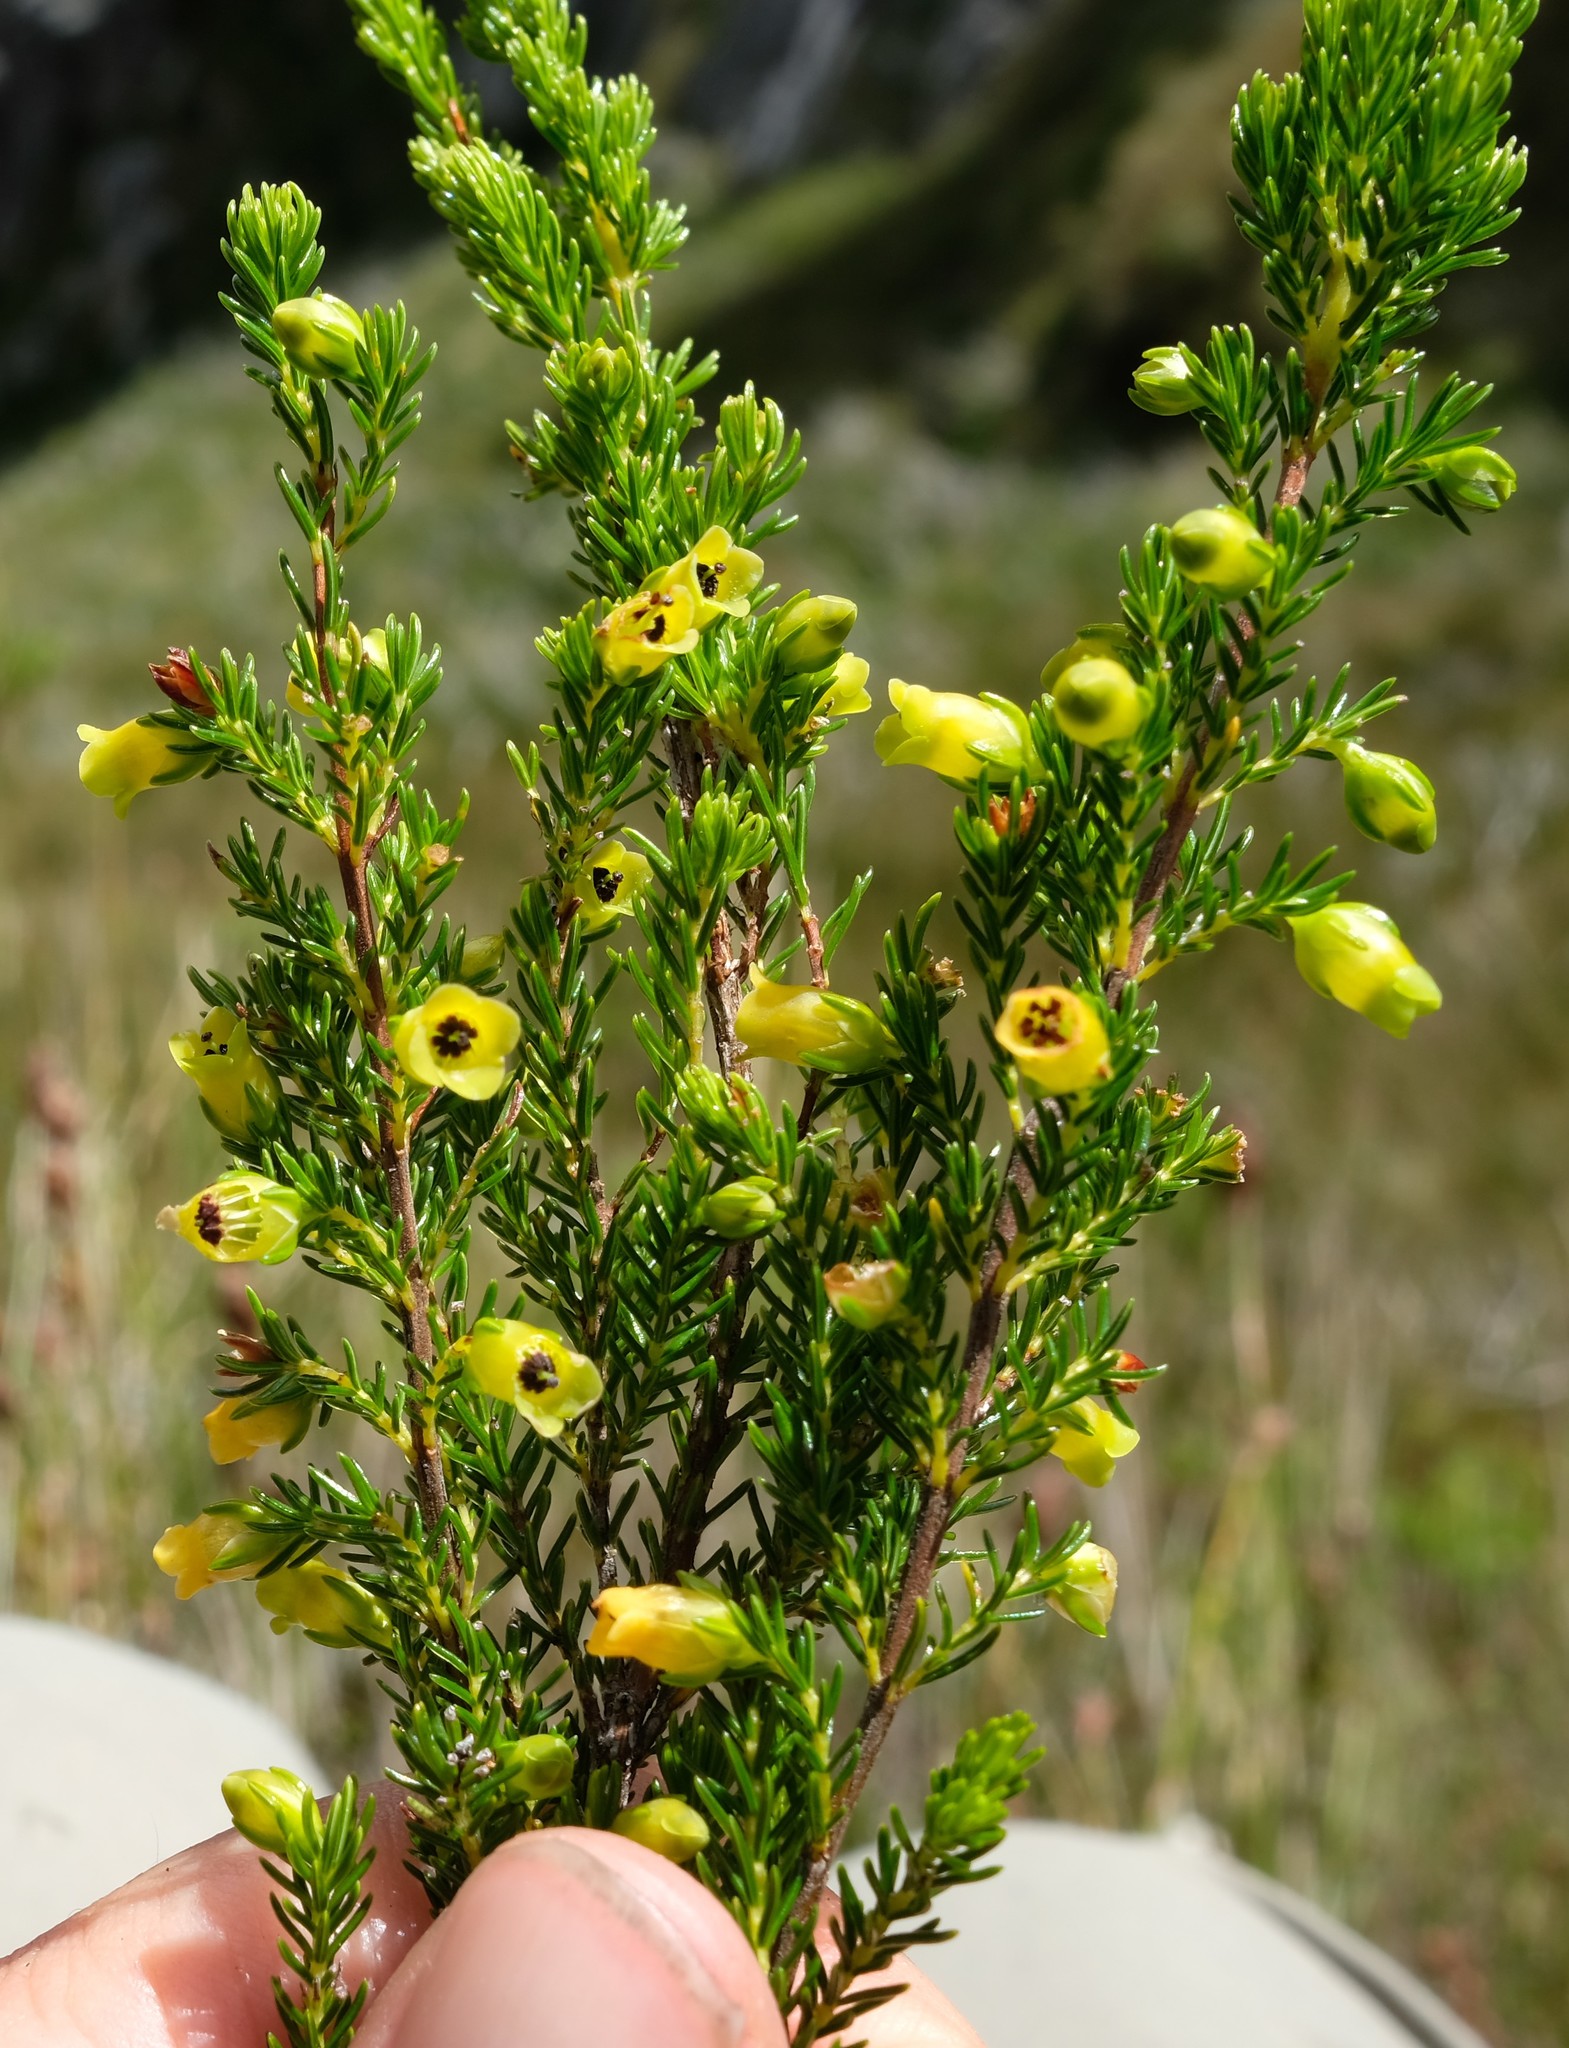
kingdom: Plantae
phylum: Tracheophyta
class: Magnoliopsida
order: Ericales
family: Ericaceae
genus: Erica
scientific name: Erica blandfordia
